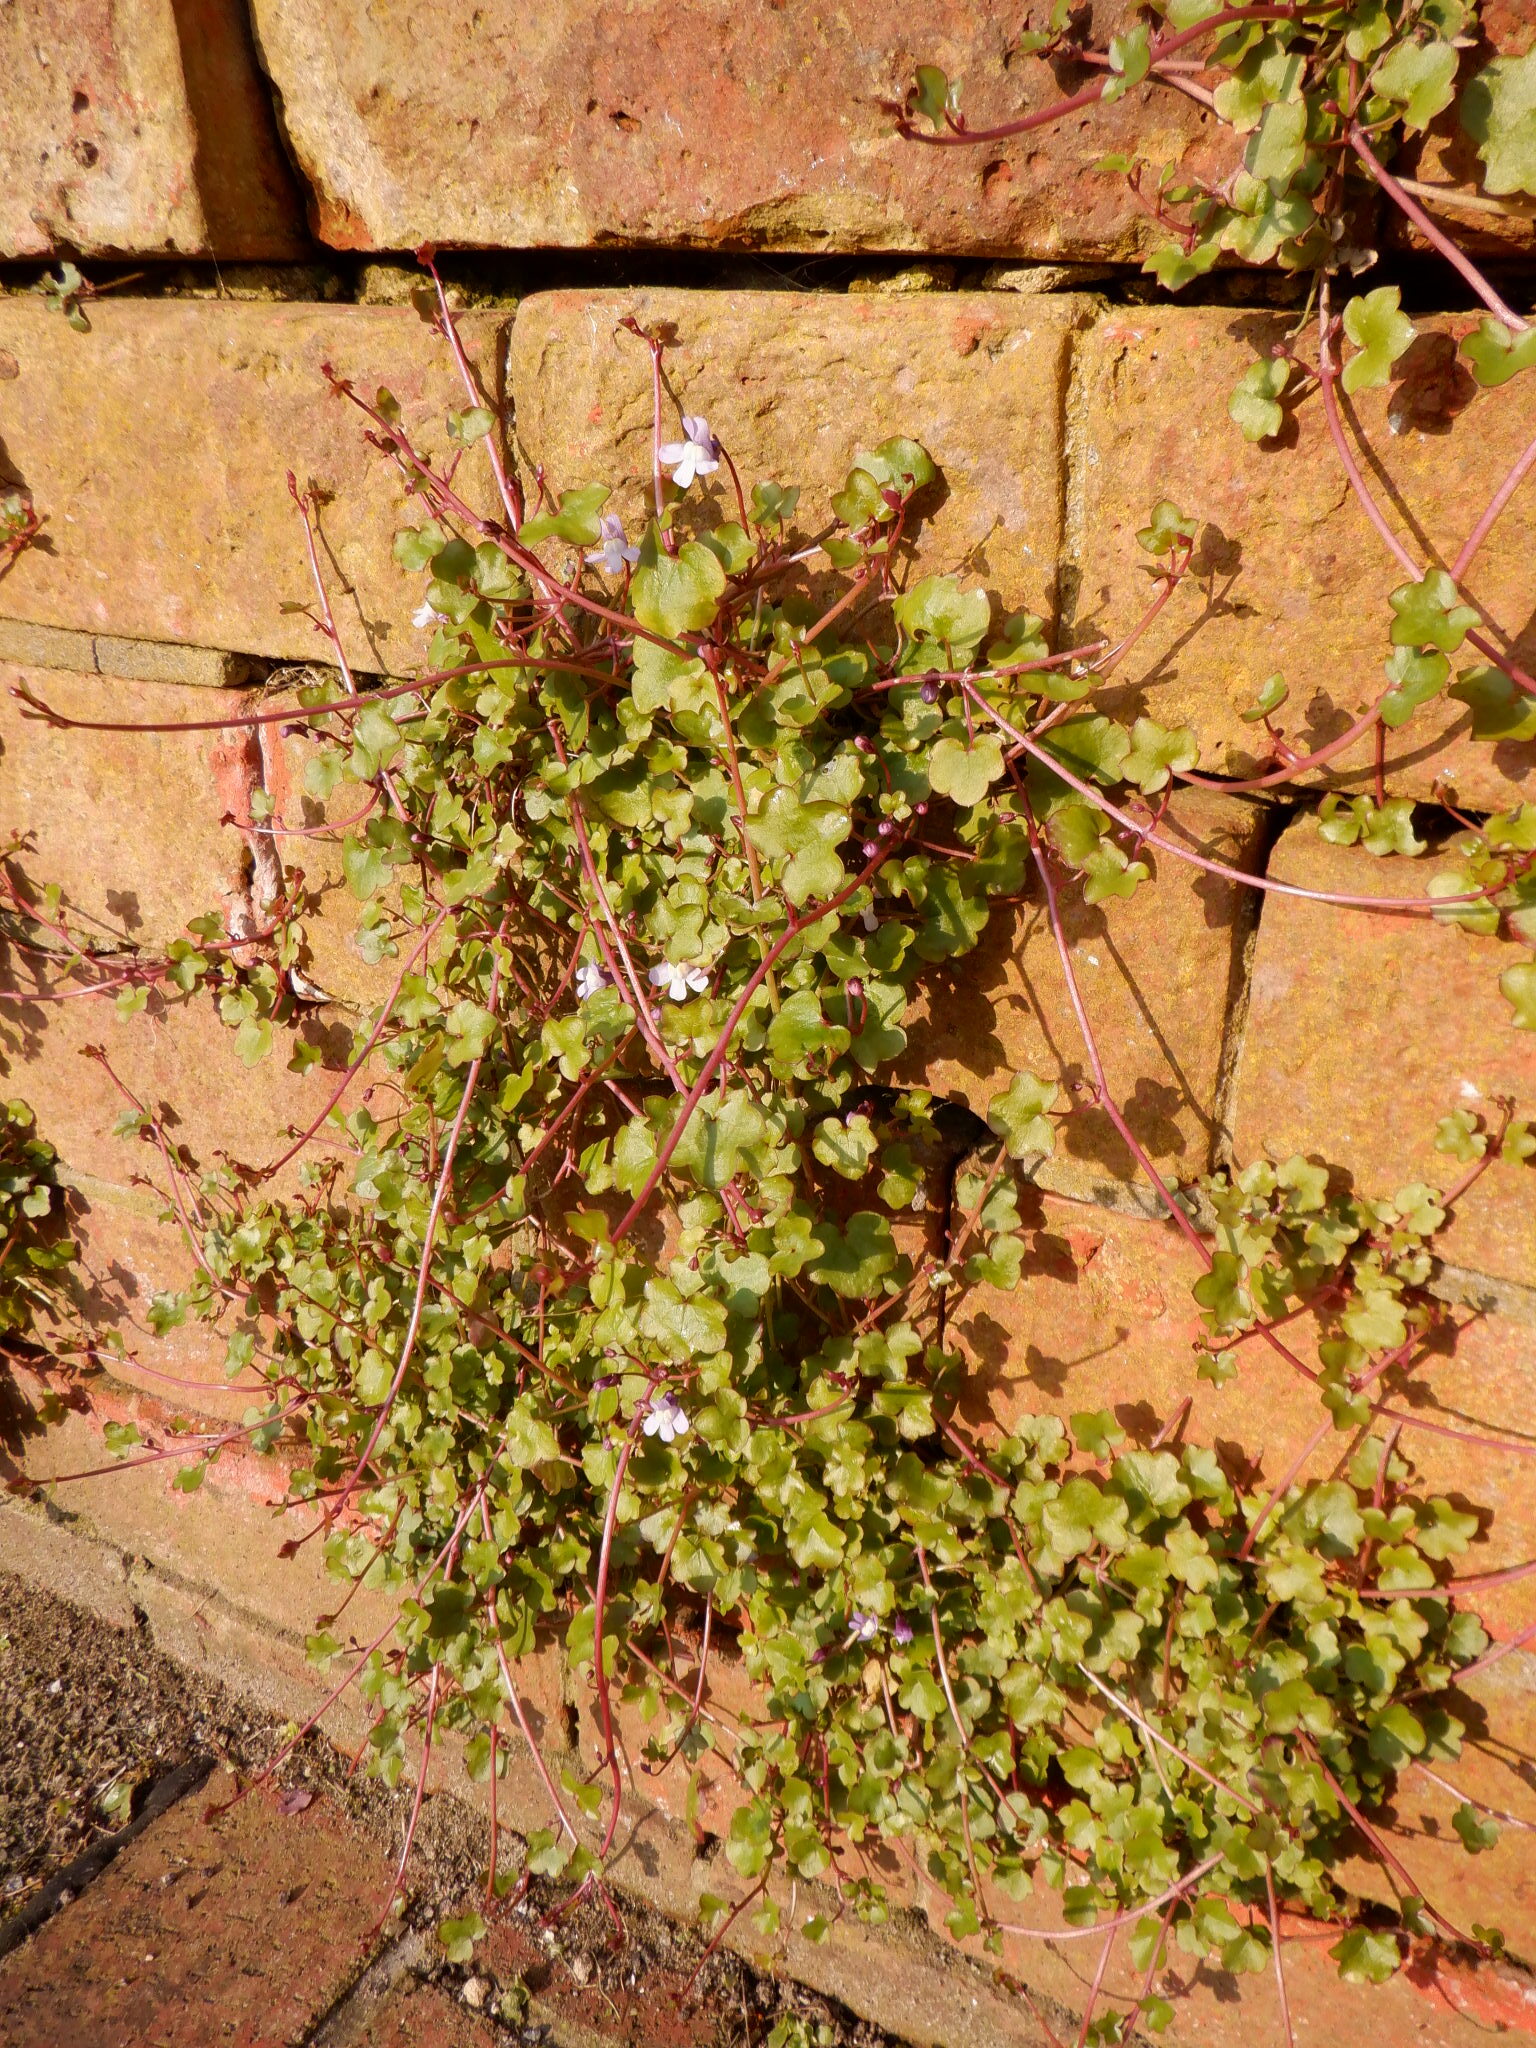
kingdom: Plantae
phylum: Tracheophyta
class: Magnoliopsida
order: Lamiales
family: Plantaginaceae
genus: Cymbalaria
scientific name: Cymbalaria muralis
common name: Ivy-leaved toadflax
